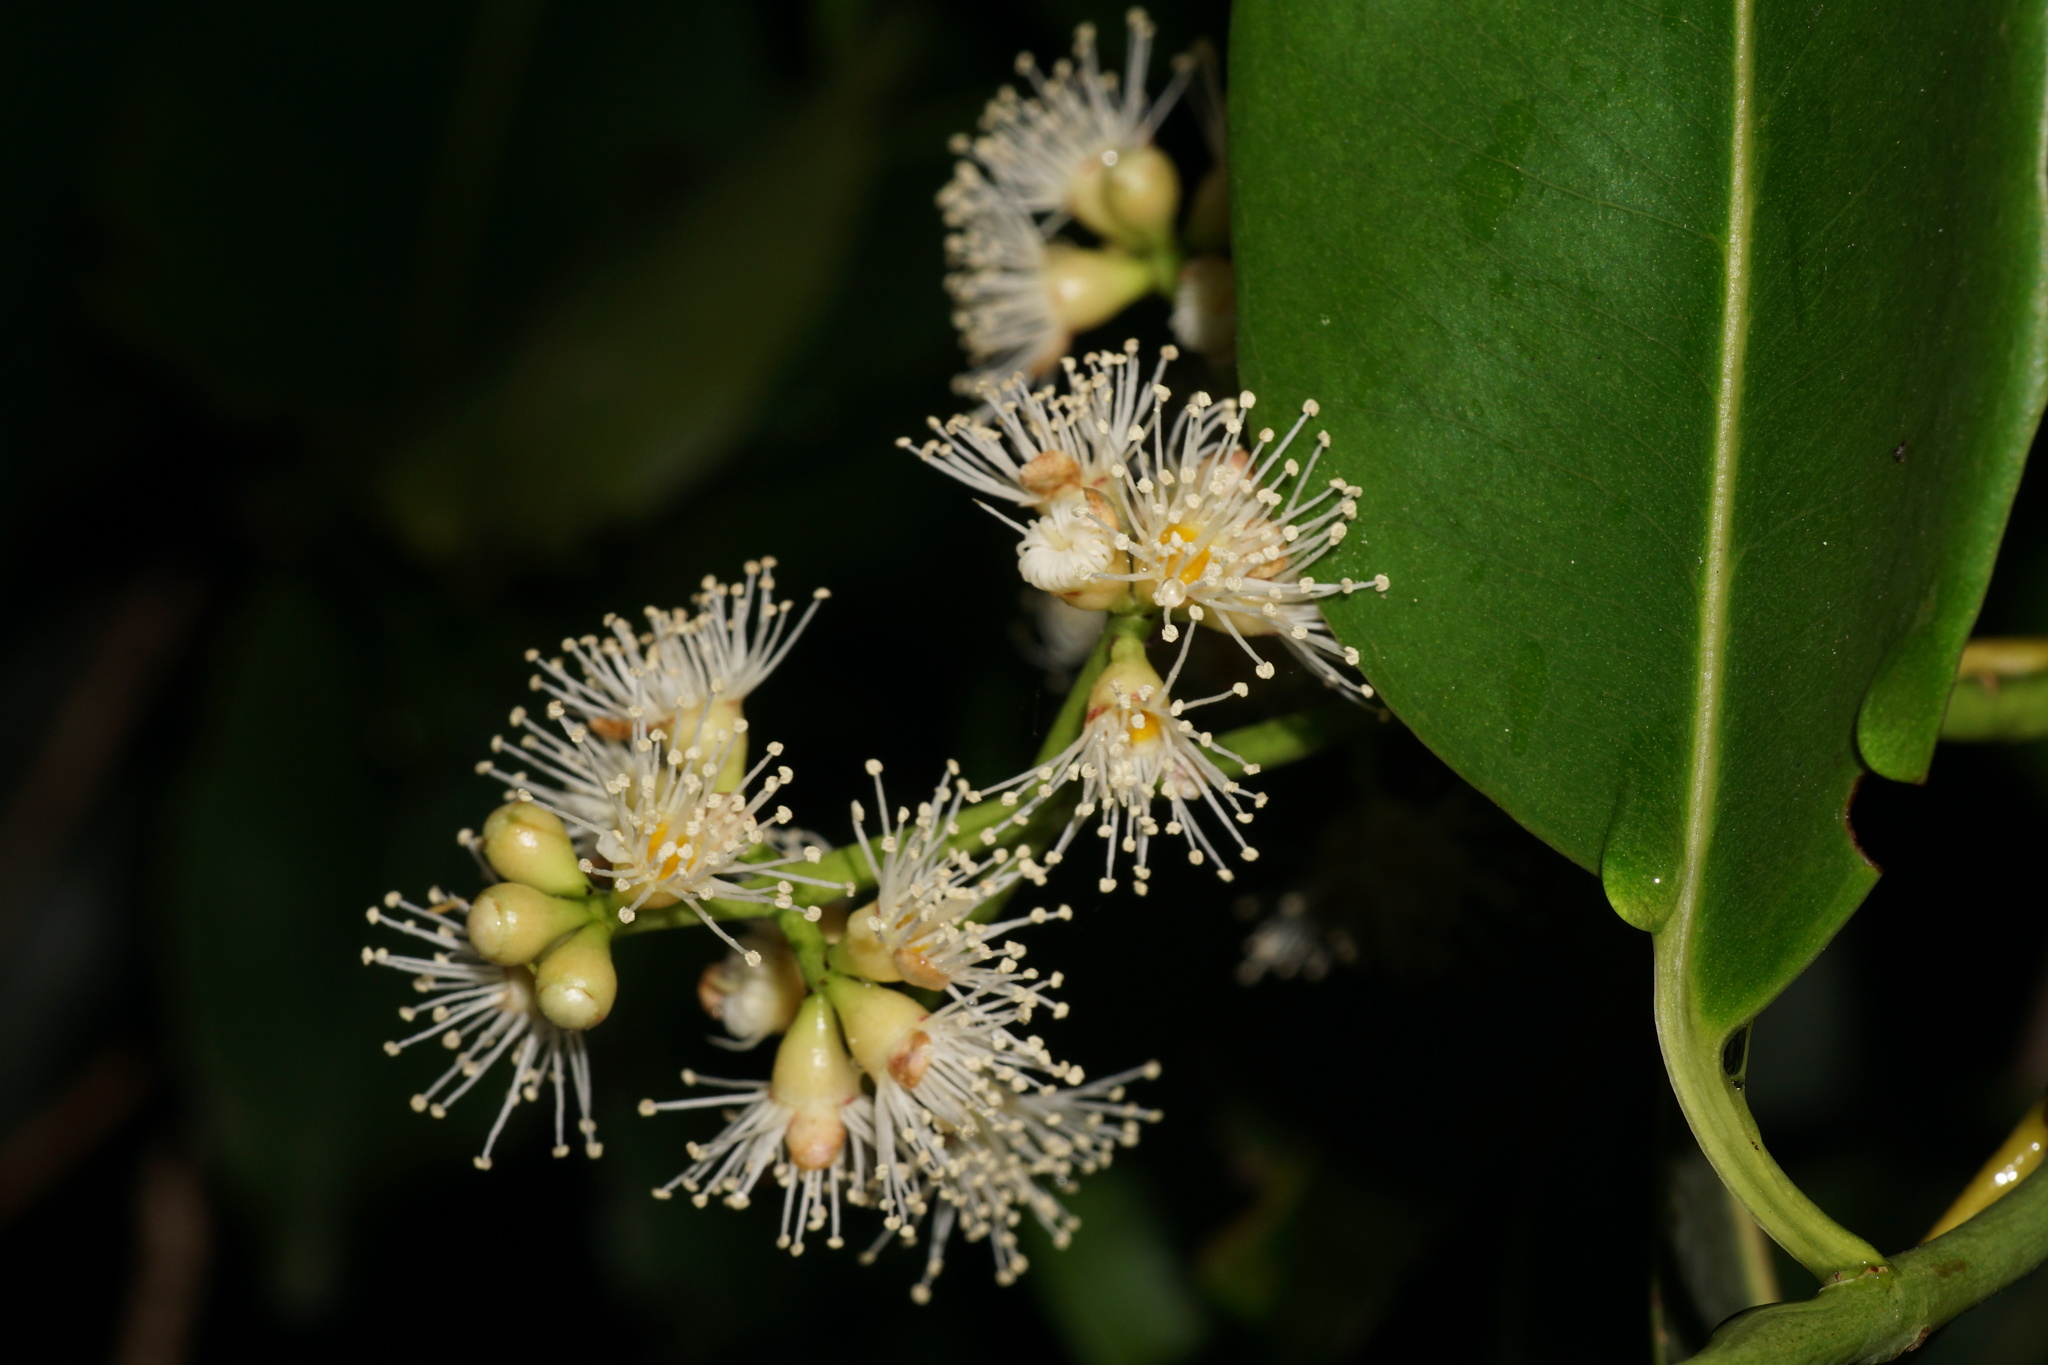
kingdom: Plantae
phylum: Tracheophyta
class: Magnoliopsida
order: Myrtales
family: Myrtaceae
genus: Syzygium
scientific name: Syzygium cumini
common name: Java plum
